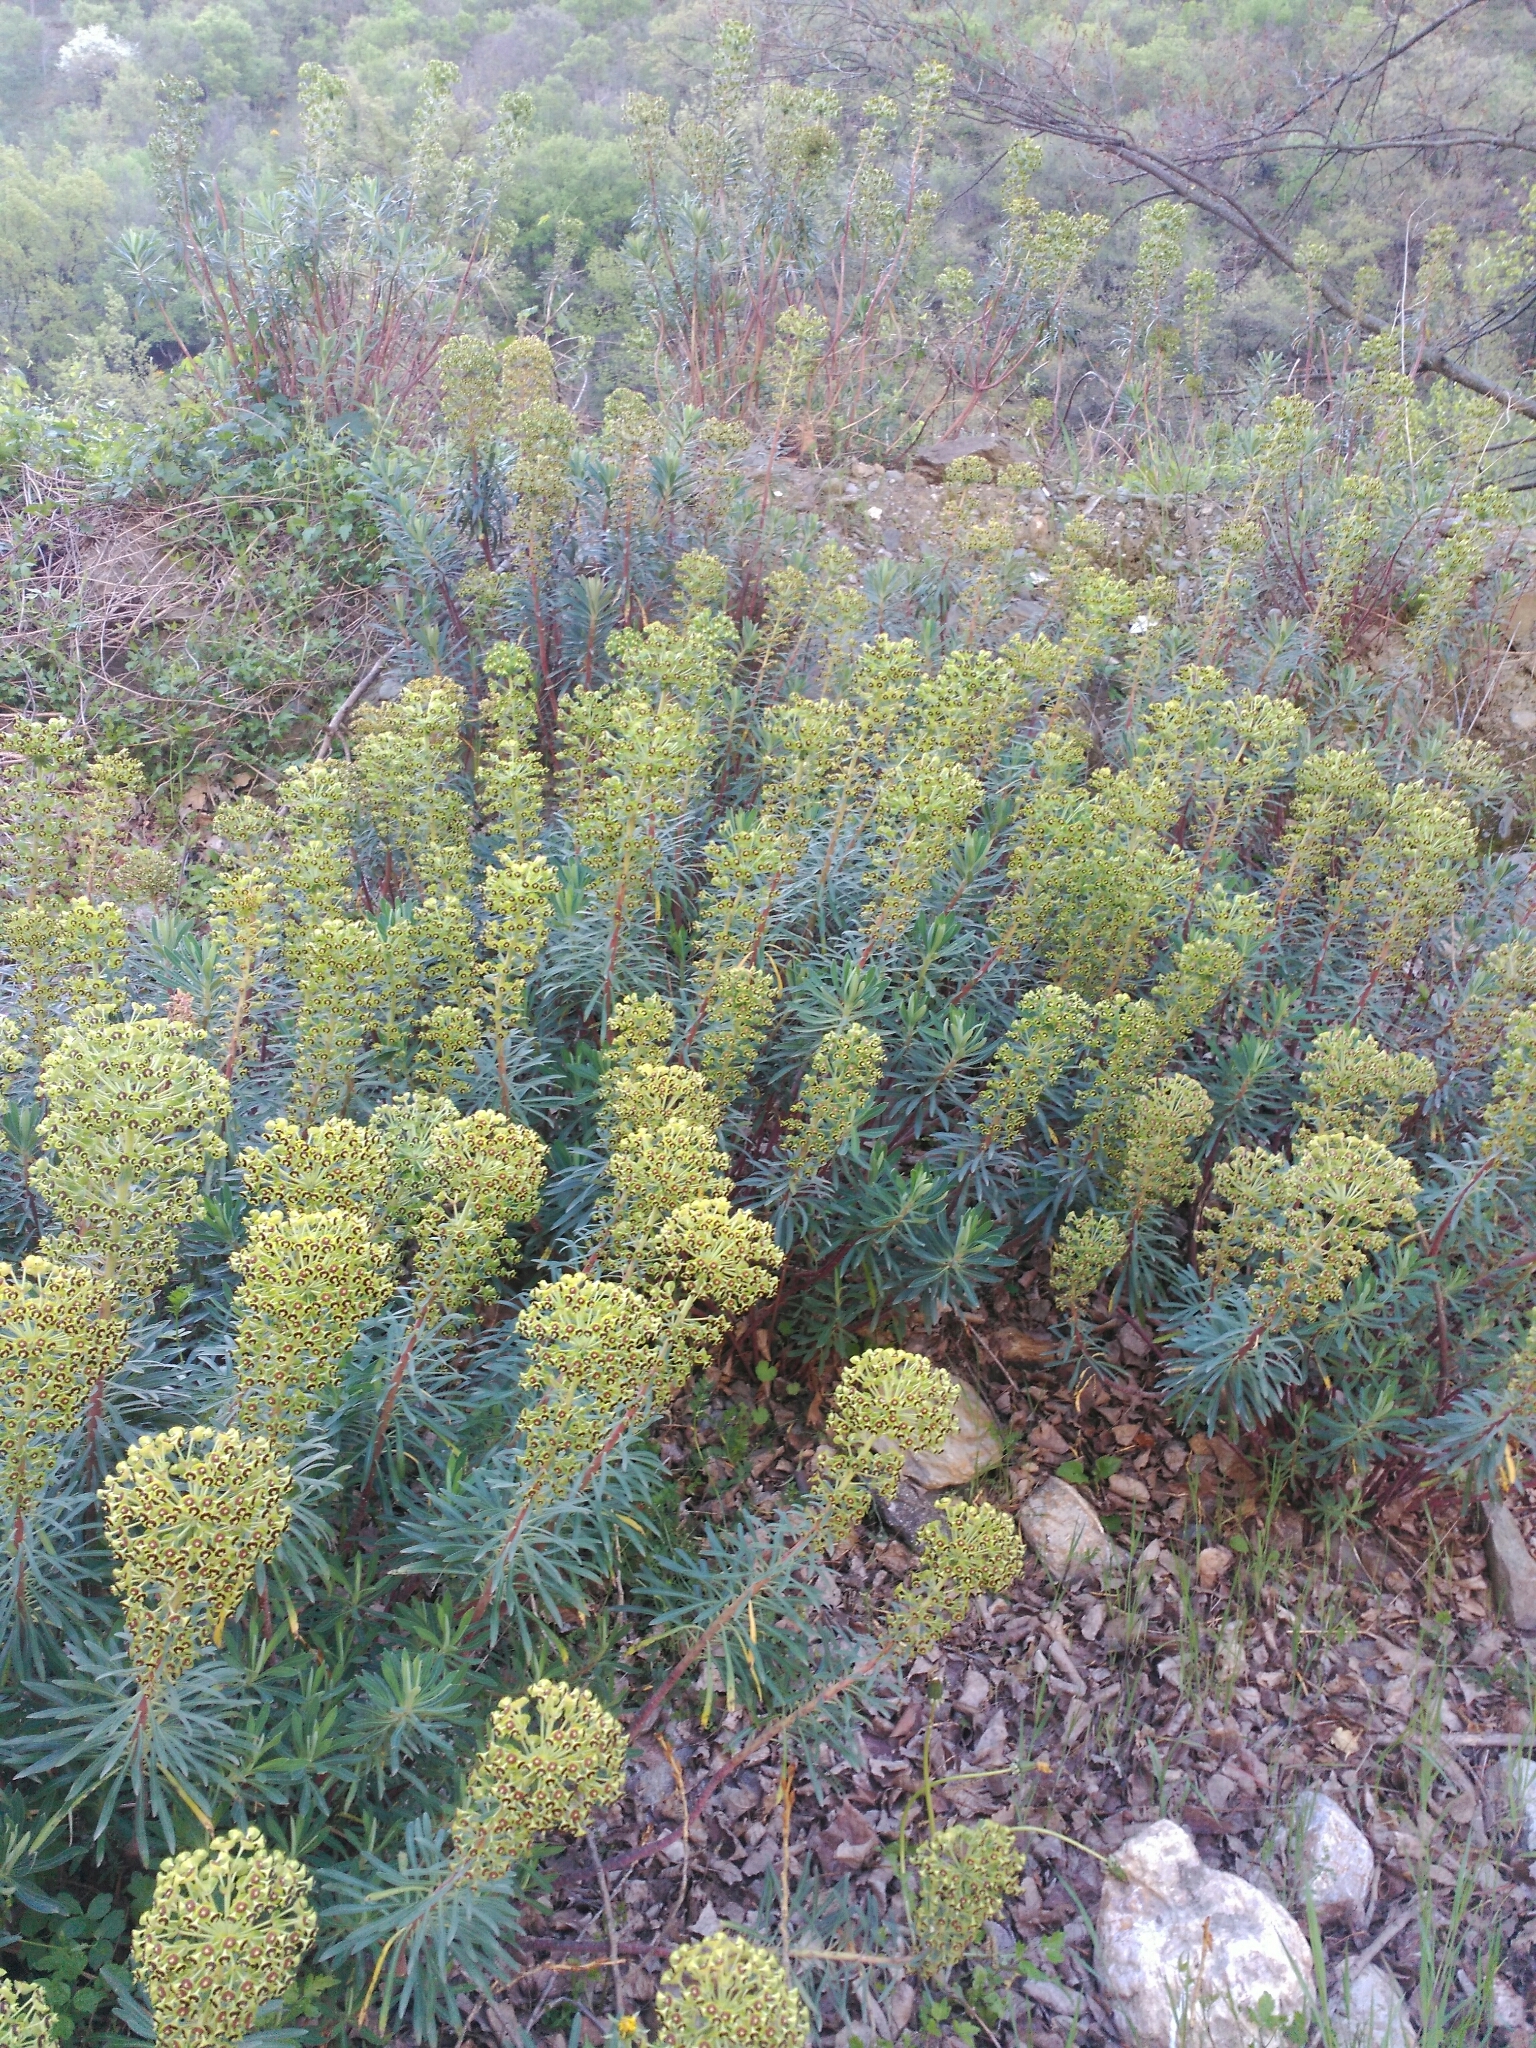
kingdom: Plantae
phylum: Tracheophyta
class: Magnoliopsida
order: Malpighiales
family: Euphorbiaceae
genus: Euphorbia
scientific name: Euphorbia characias
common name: Mediterranean spurge
